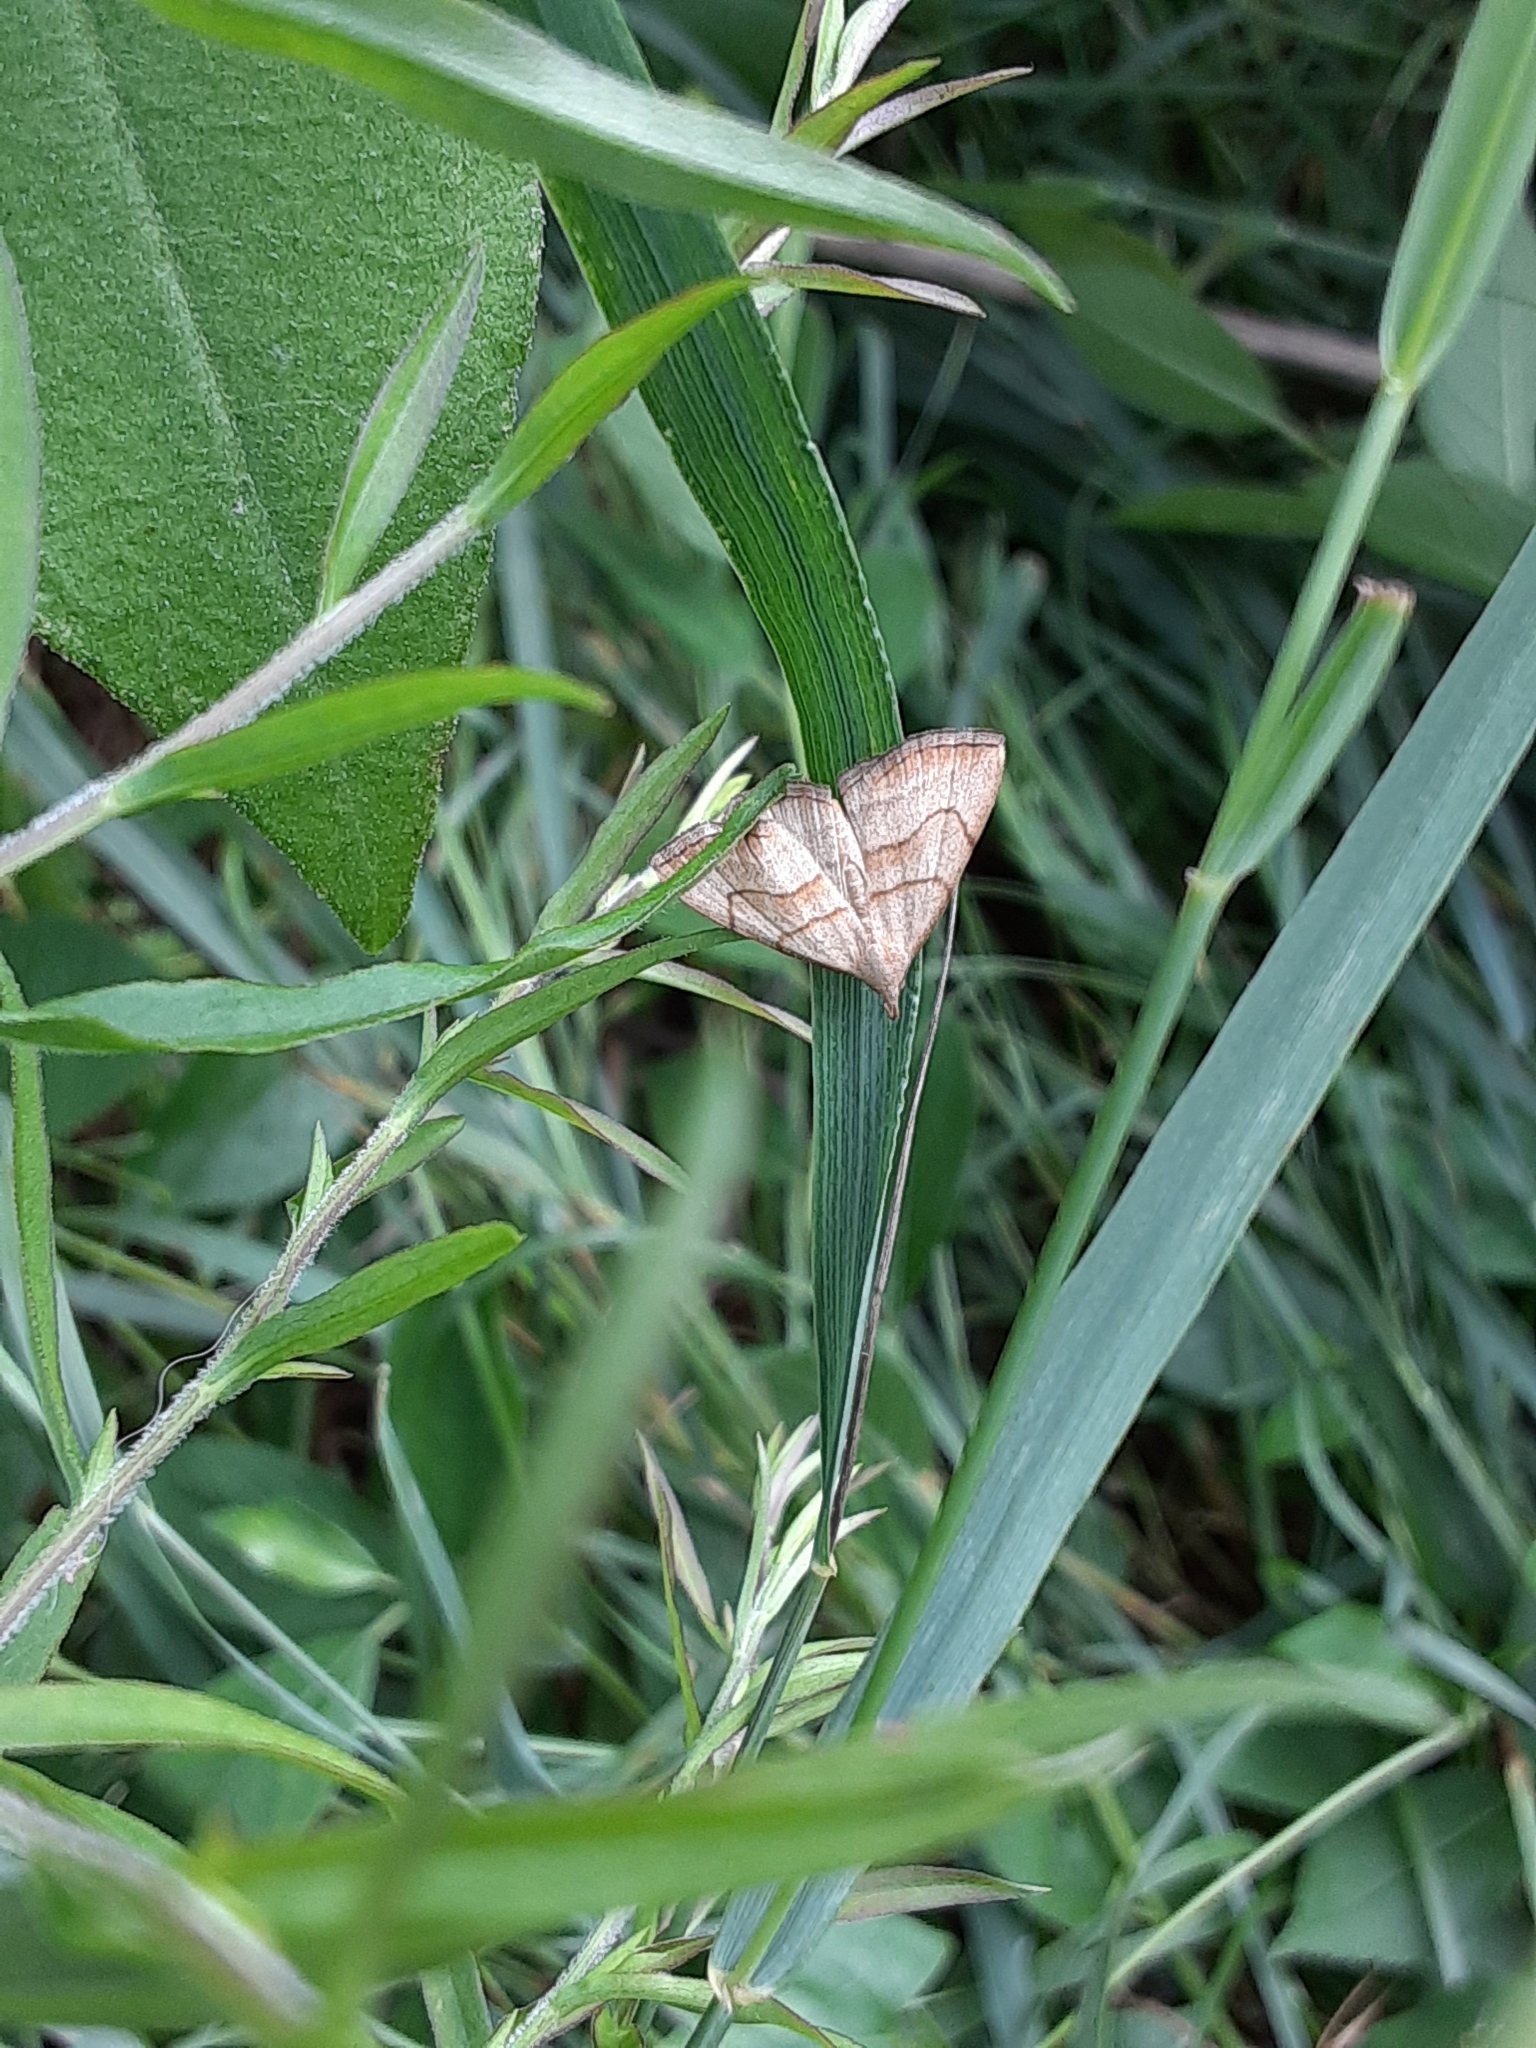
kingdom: Animalia
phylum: Arthropoda
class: Insecta
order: Lepidoptera
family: Erebidae
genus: Macrochilo
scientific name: Macrochilo litophora
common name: Brown-lined owlet
